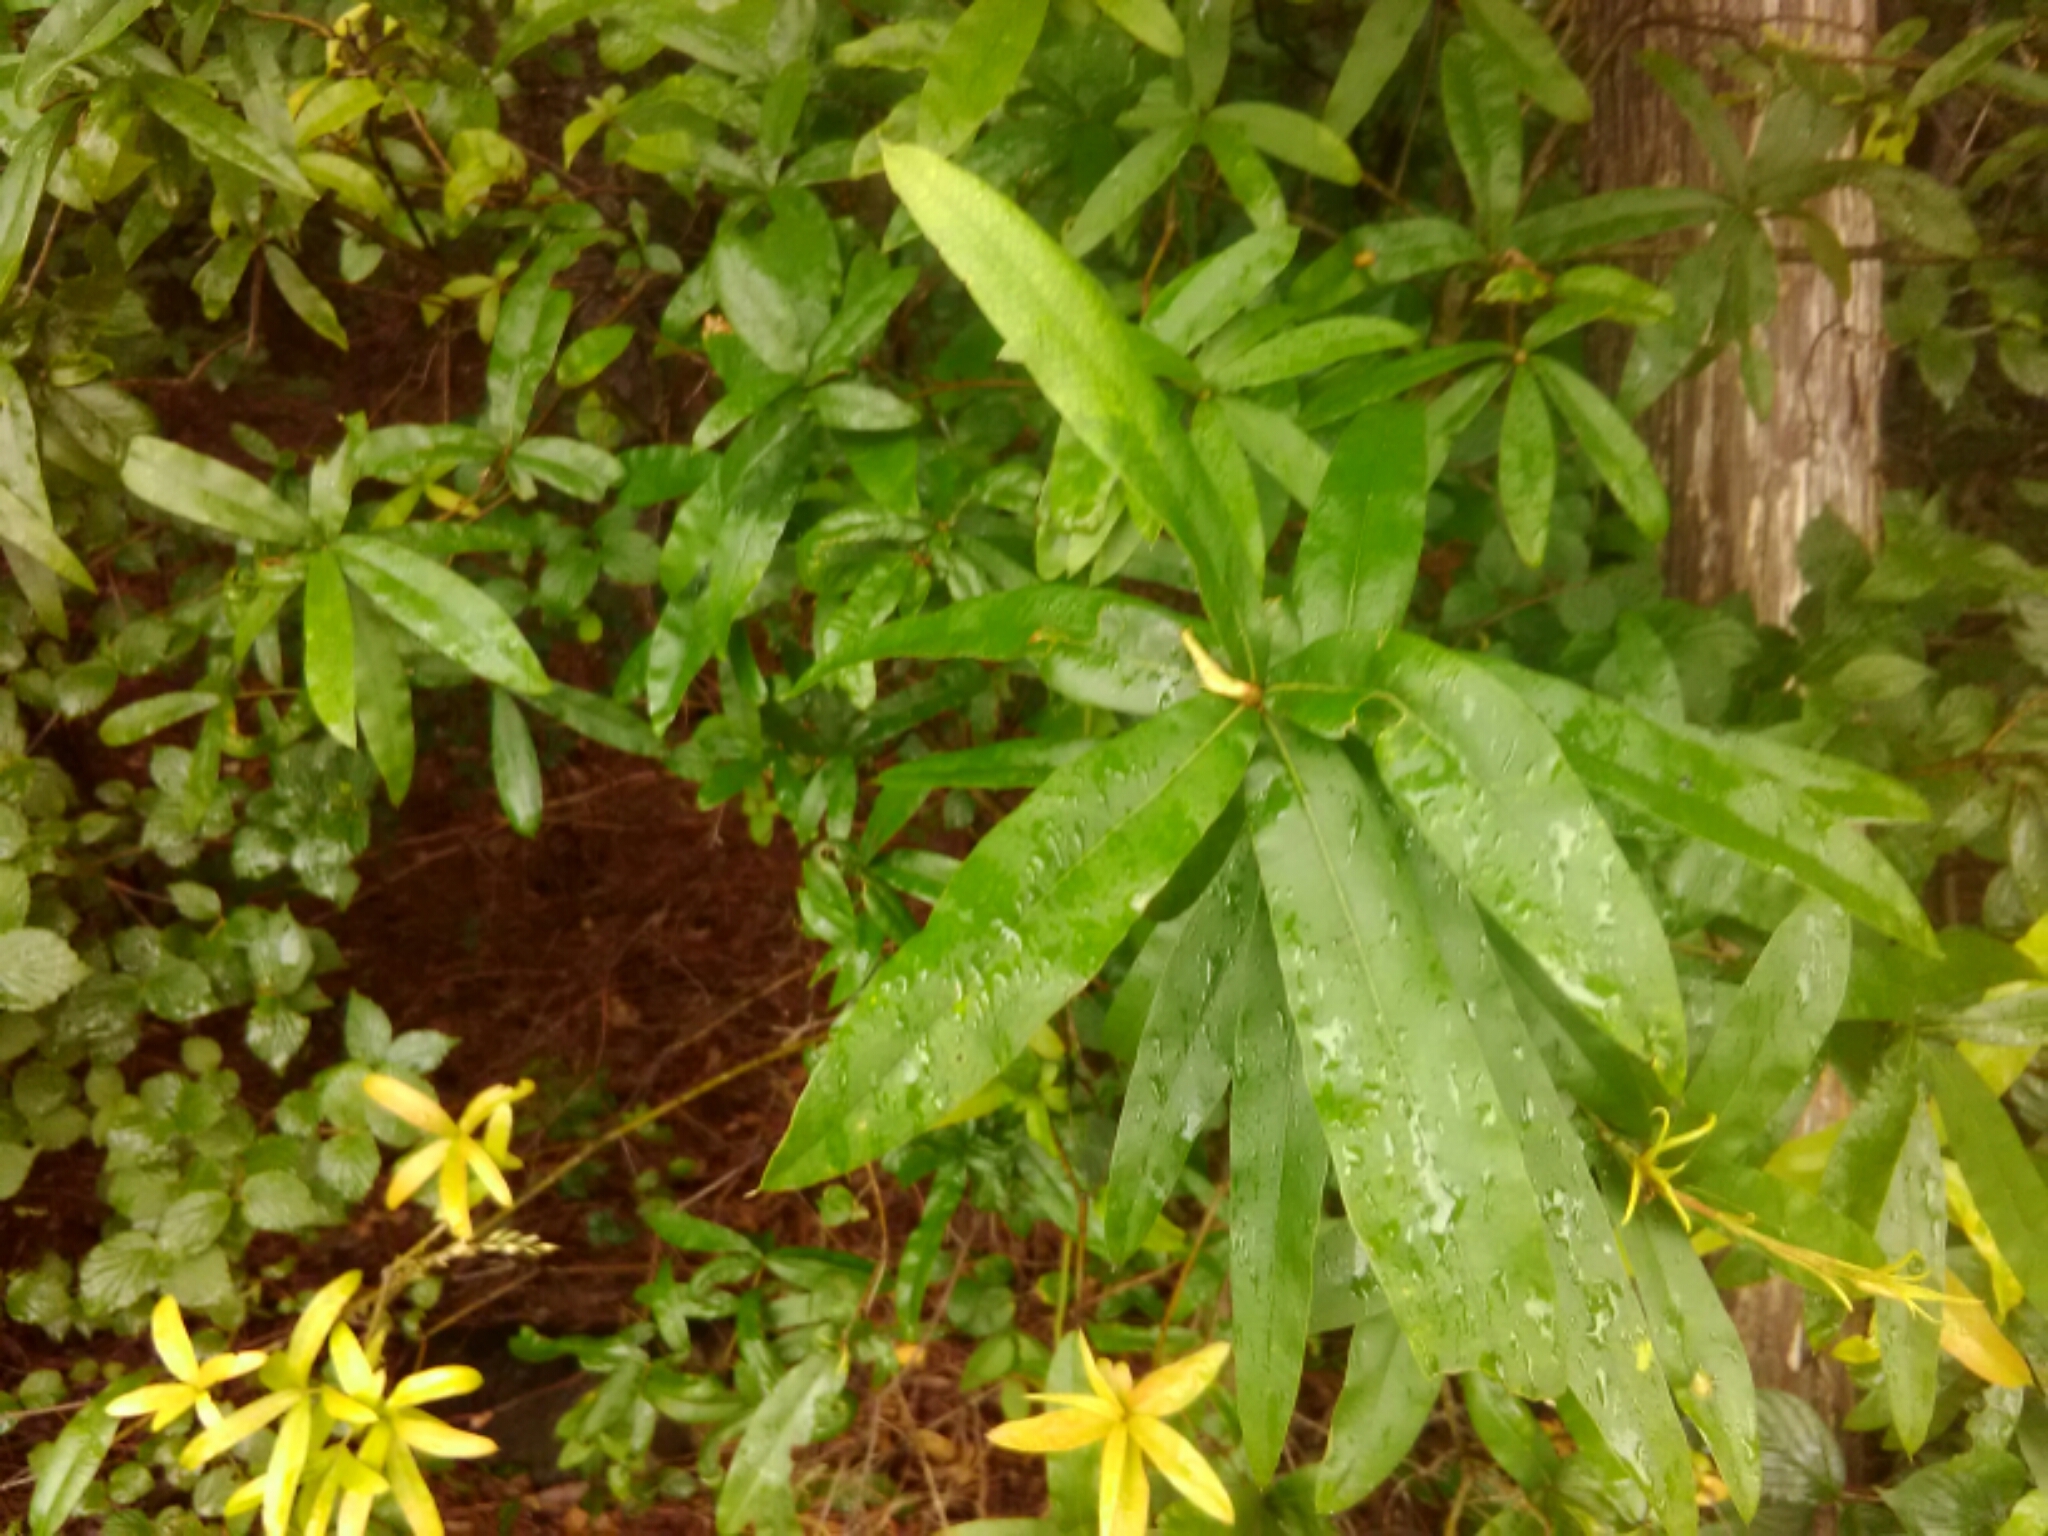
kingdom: Plantae
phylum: Tracheophyta
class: Magnoliopsida
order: Fagales
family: Fagaceae
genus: Quercus
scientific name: Quercus phellos
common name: Willow oak
